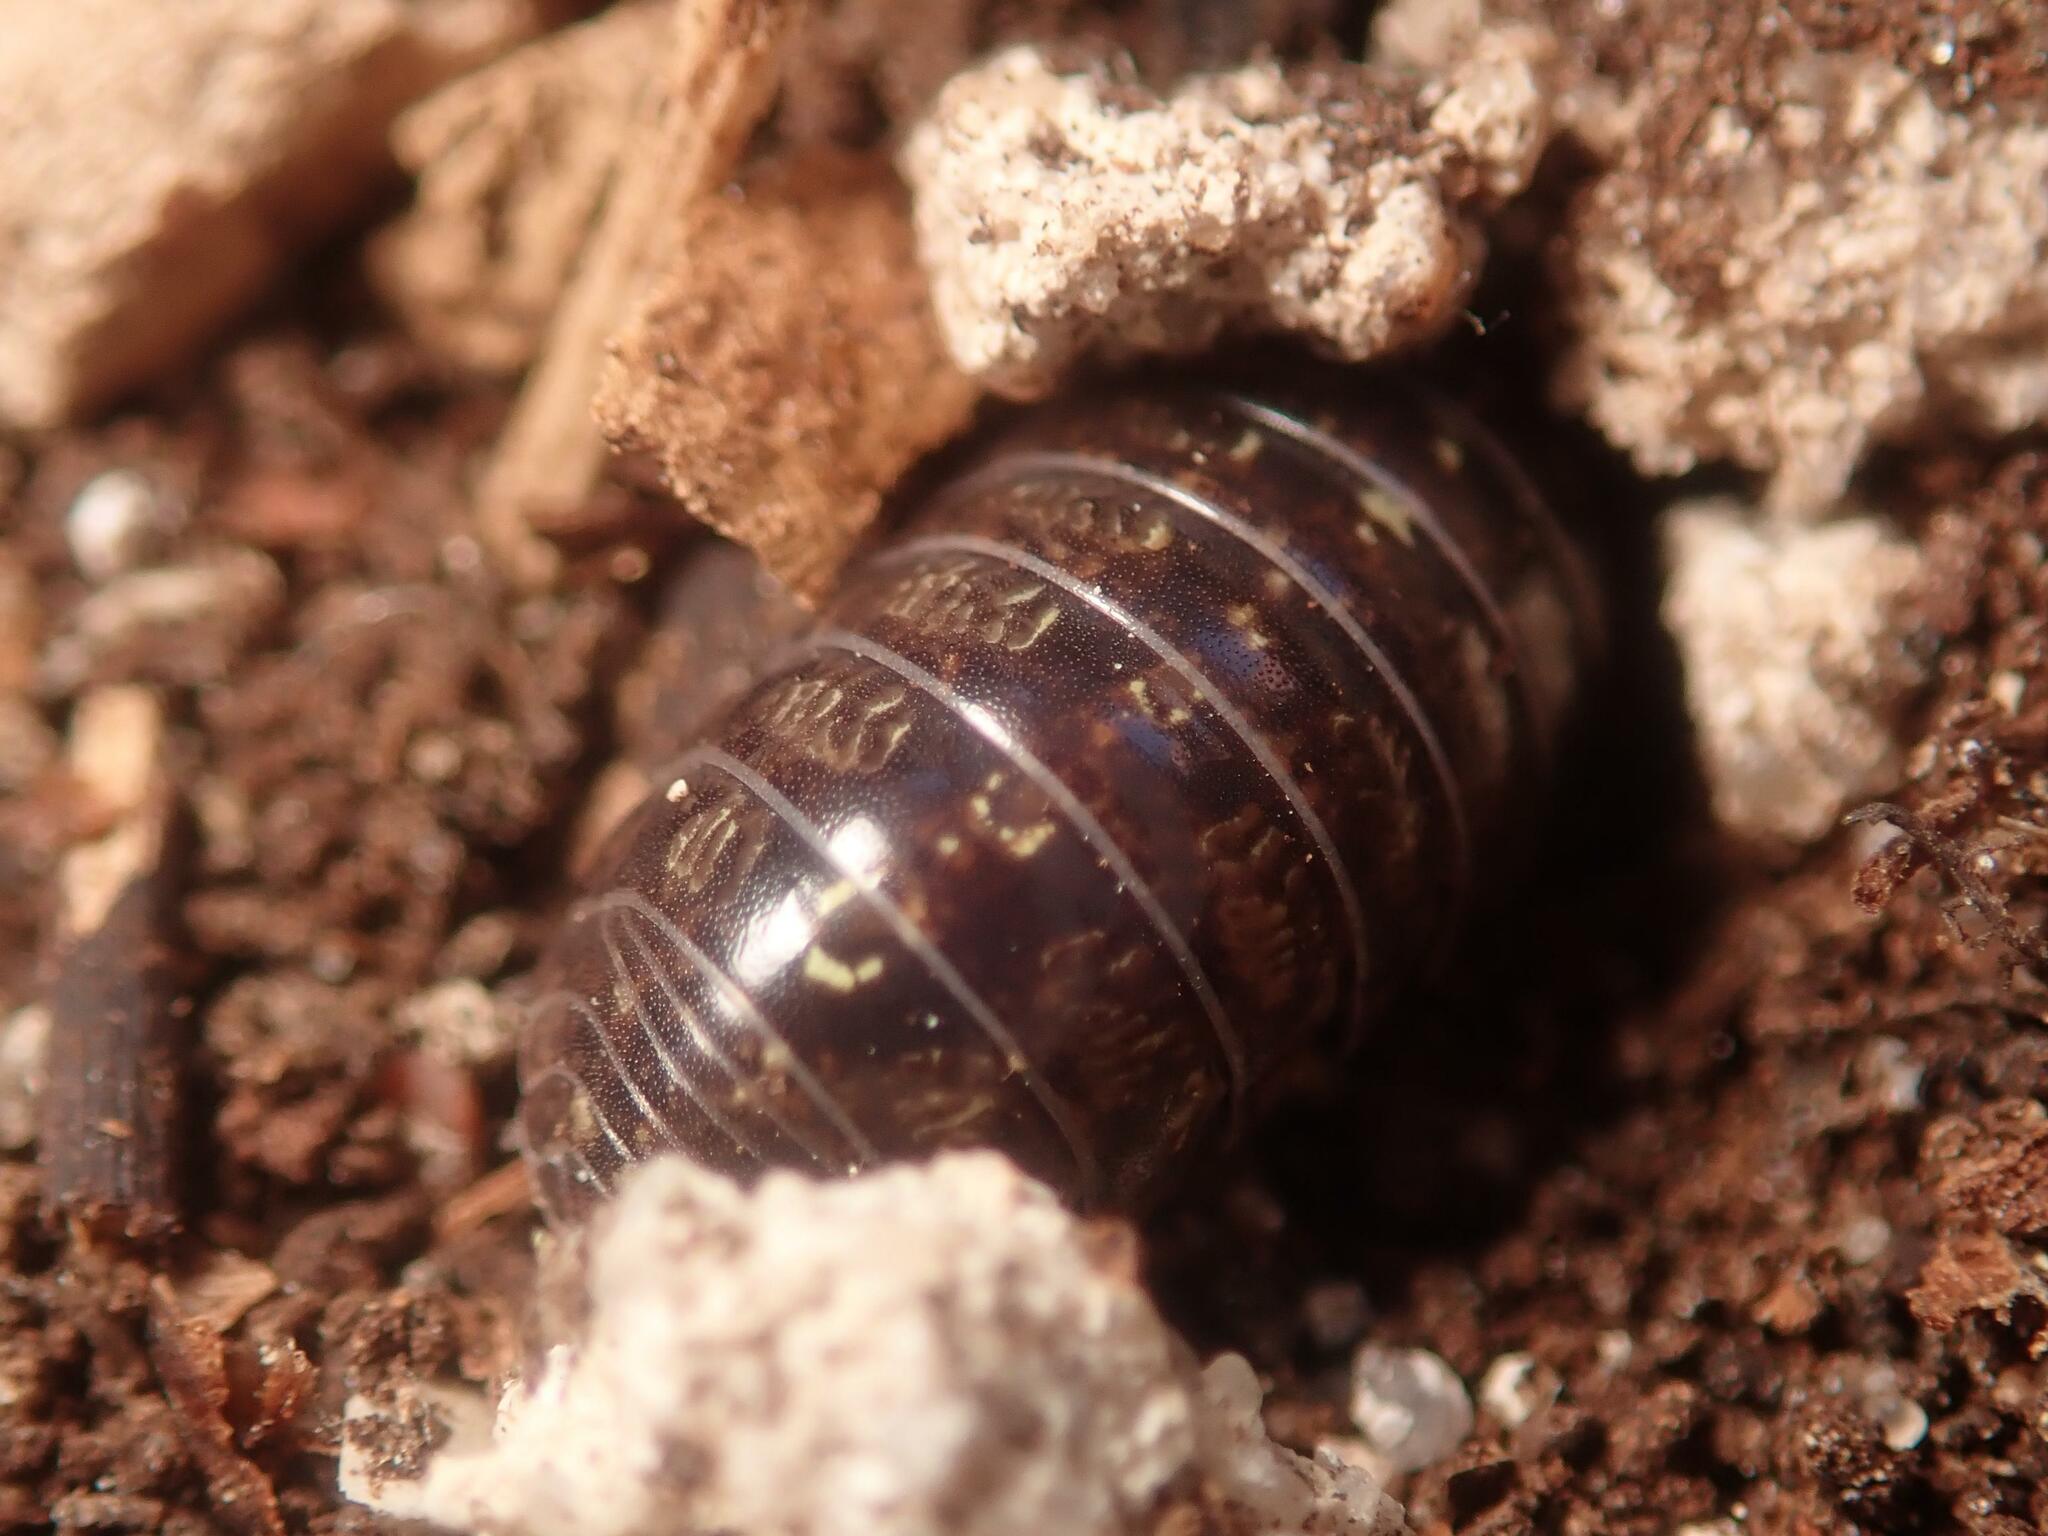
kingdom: Animalia
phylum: Arthropoda
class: Malacostraca
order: Isopoda
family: Armadillidiidae
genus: Armadillidium
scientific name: Armadillidium vulgare
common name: Common pill woodlouse
